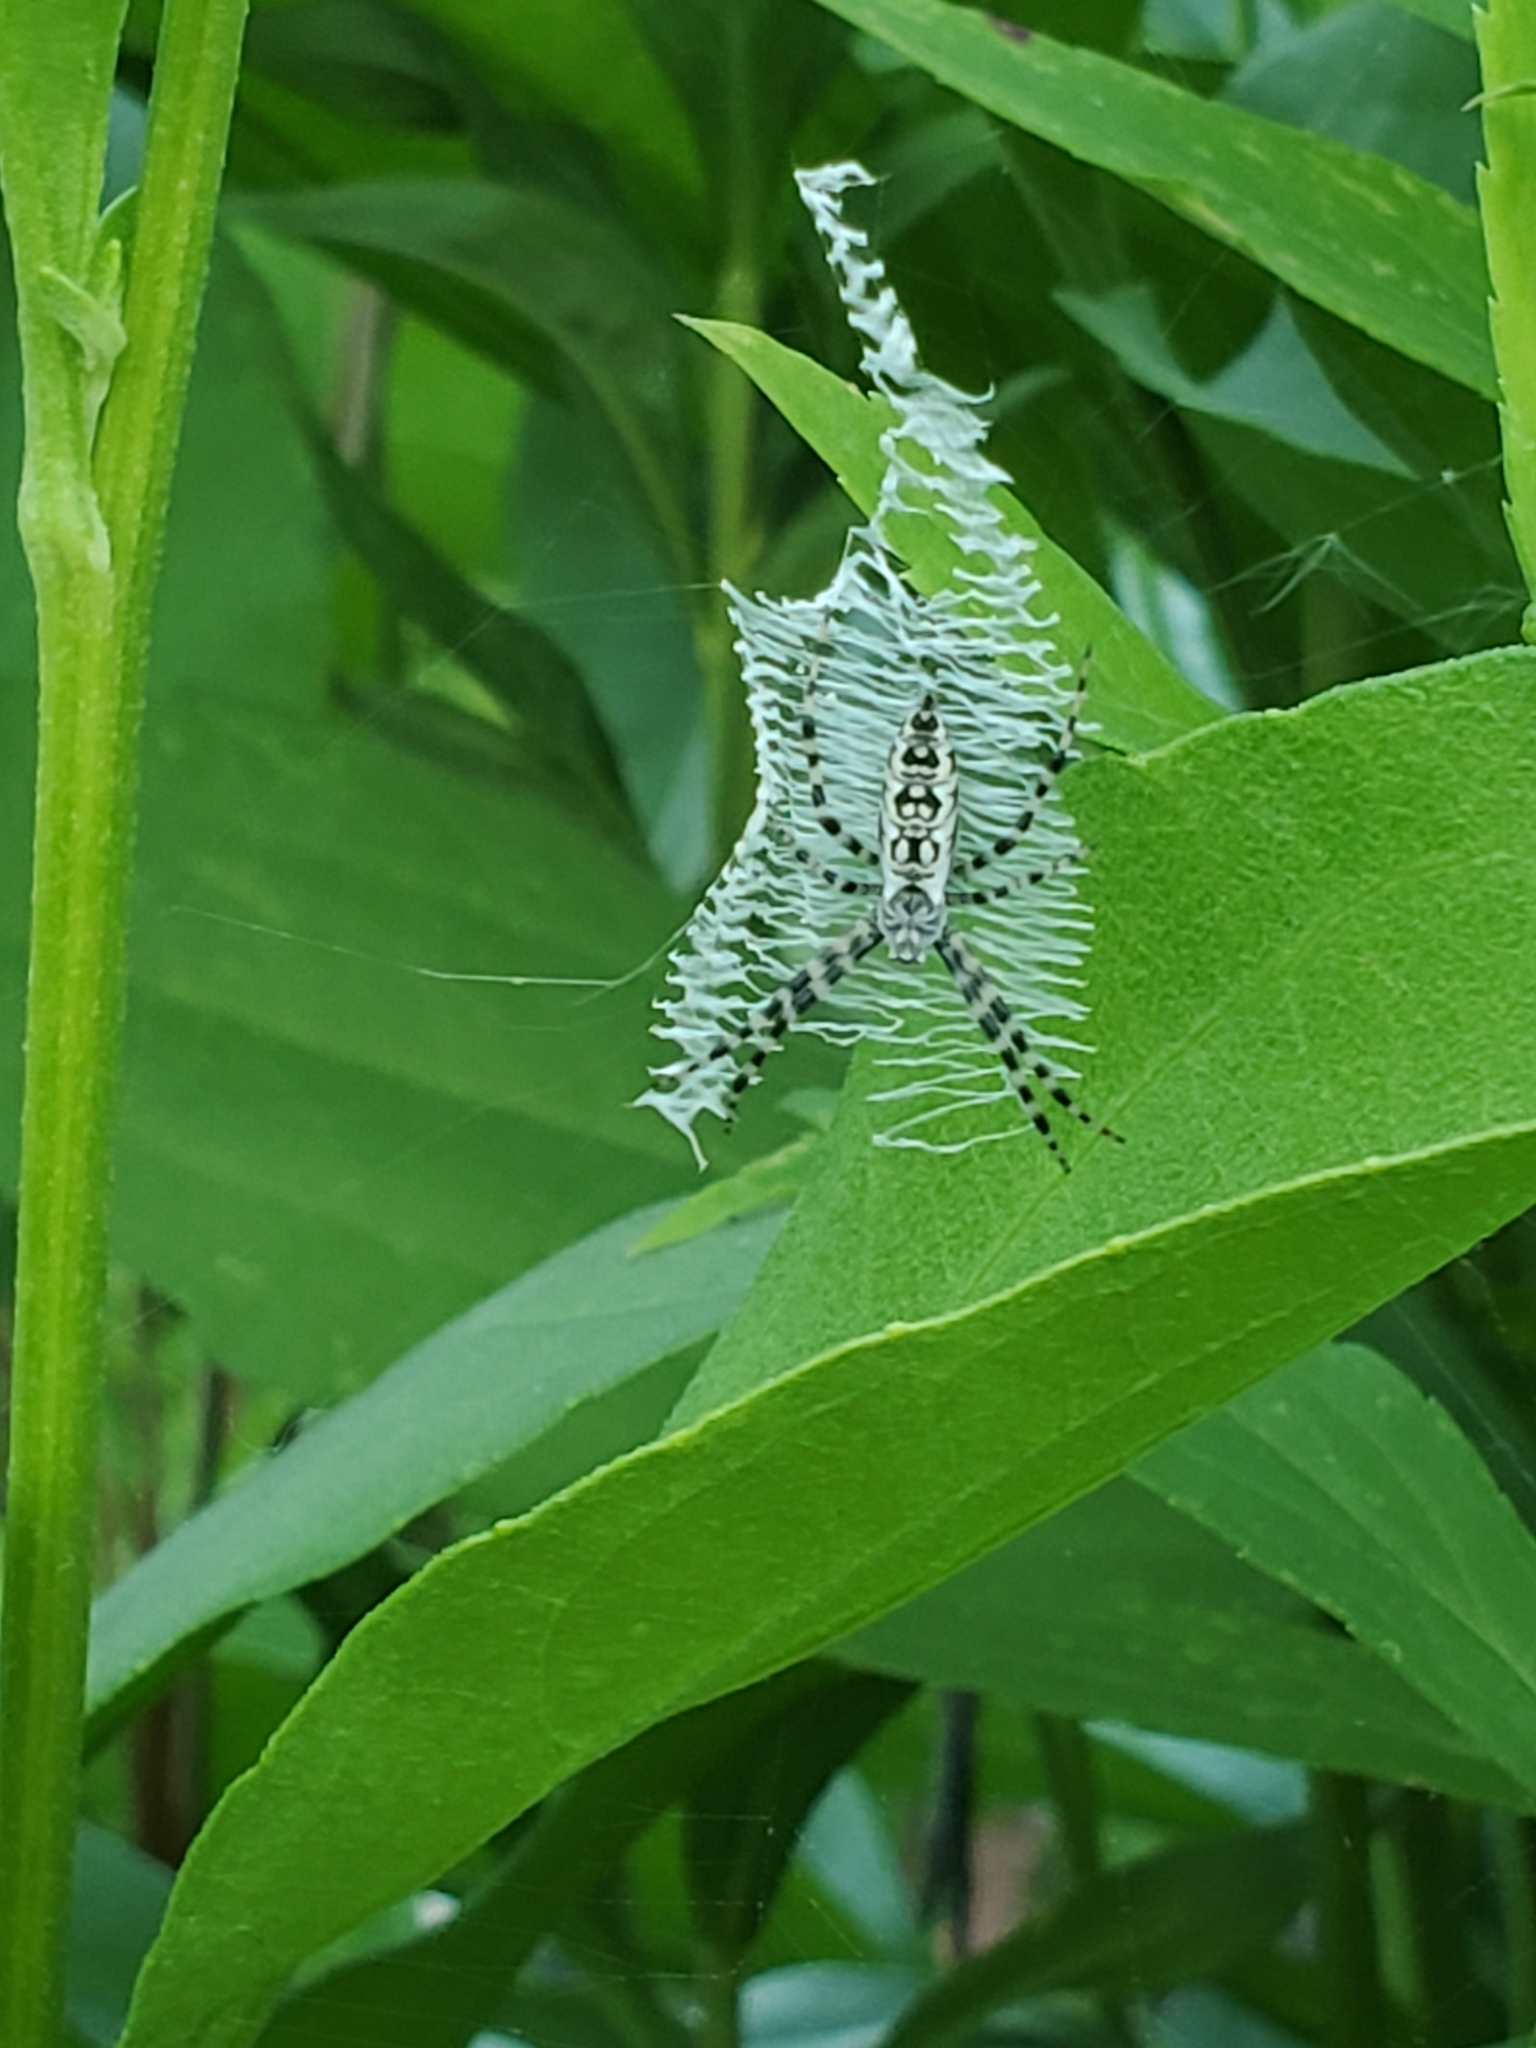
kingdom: Animalia
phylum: Arthropoda
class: Arachnida
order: Araneae
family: Araneidae
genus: Argiope
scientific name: Argiope aurantia
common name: Orb weavers
